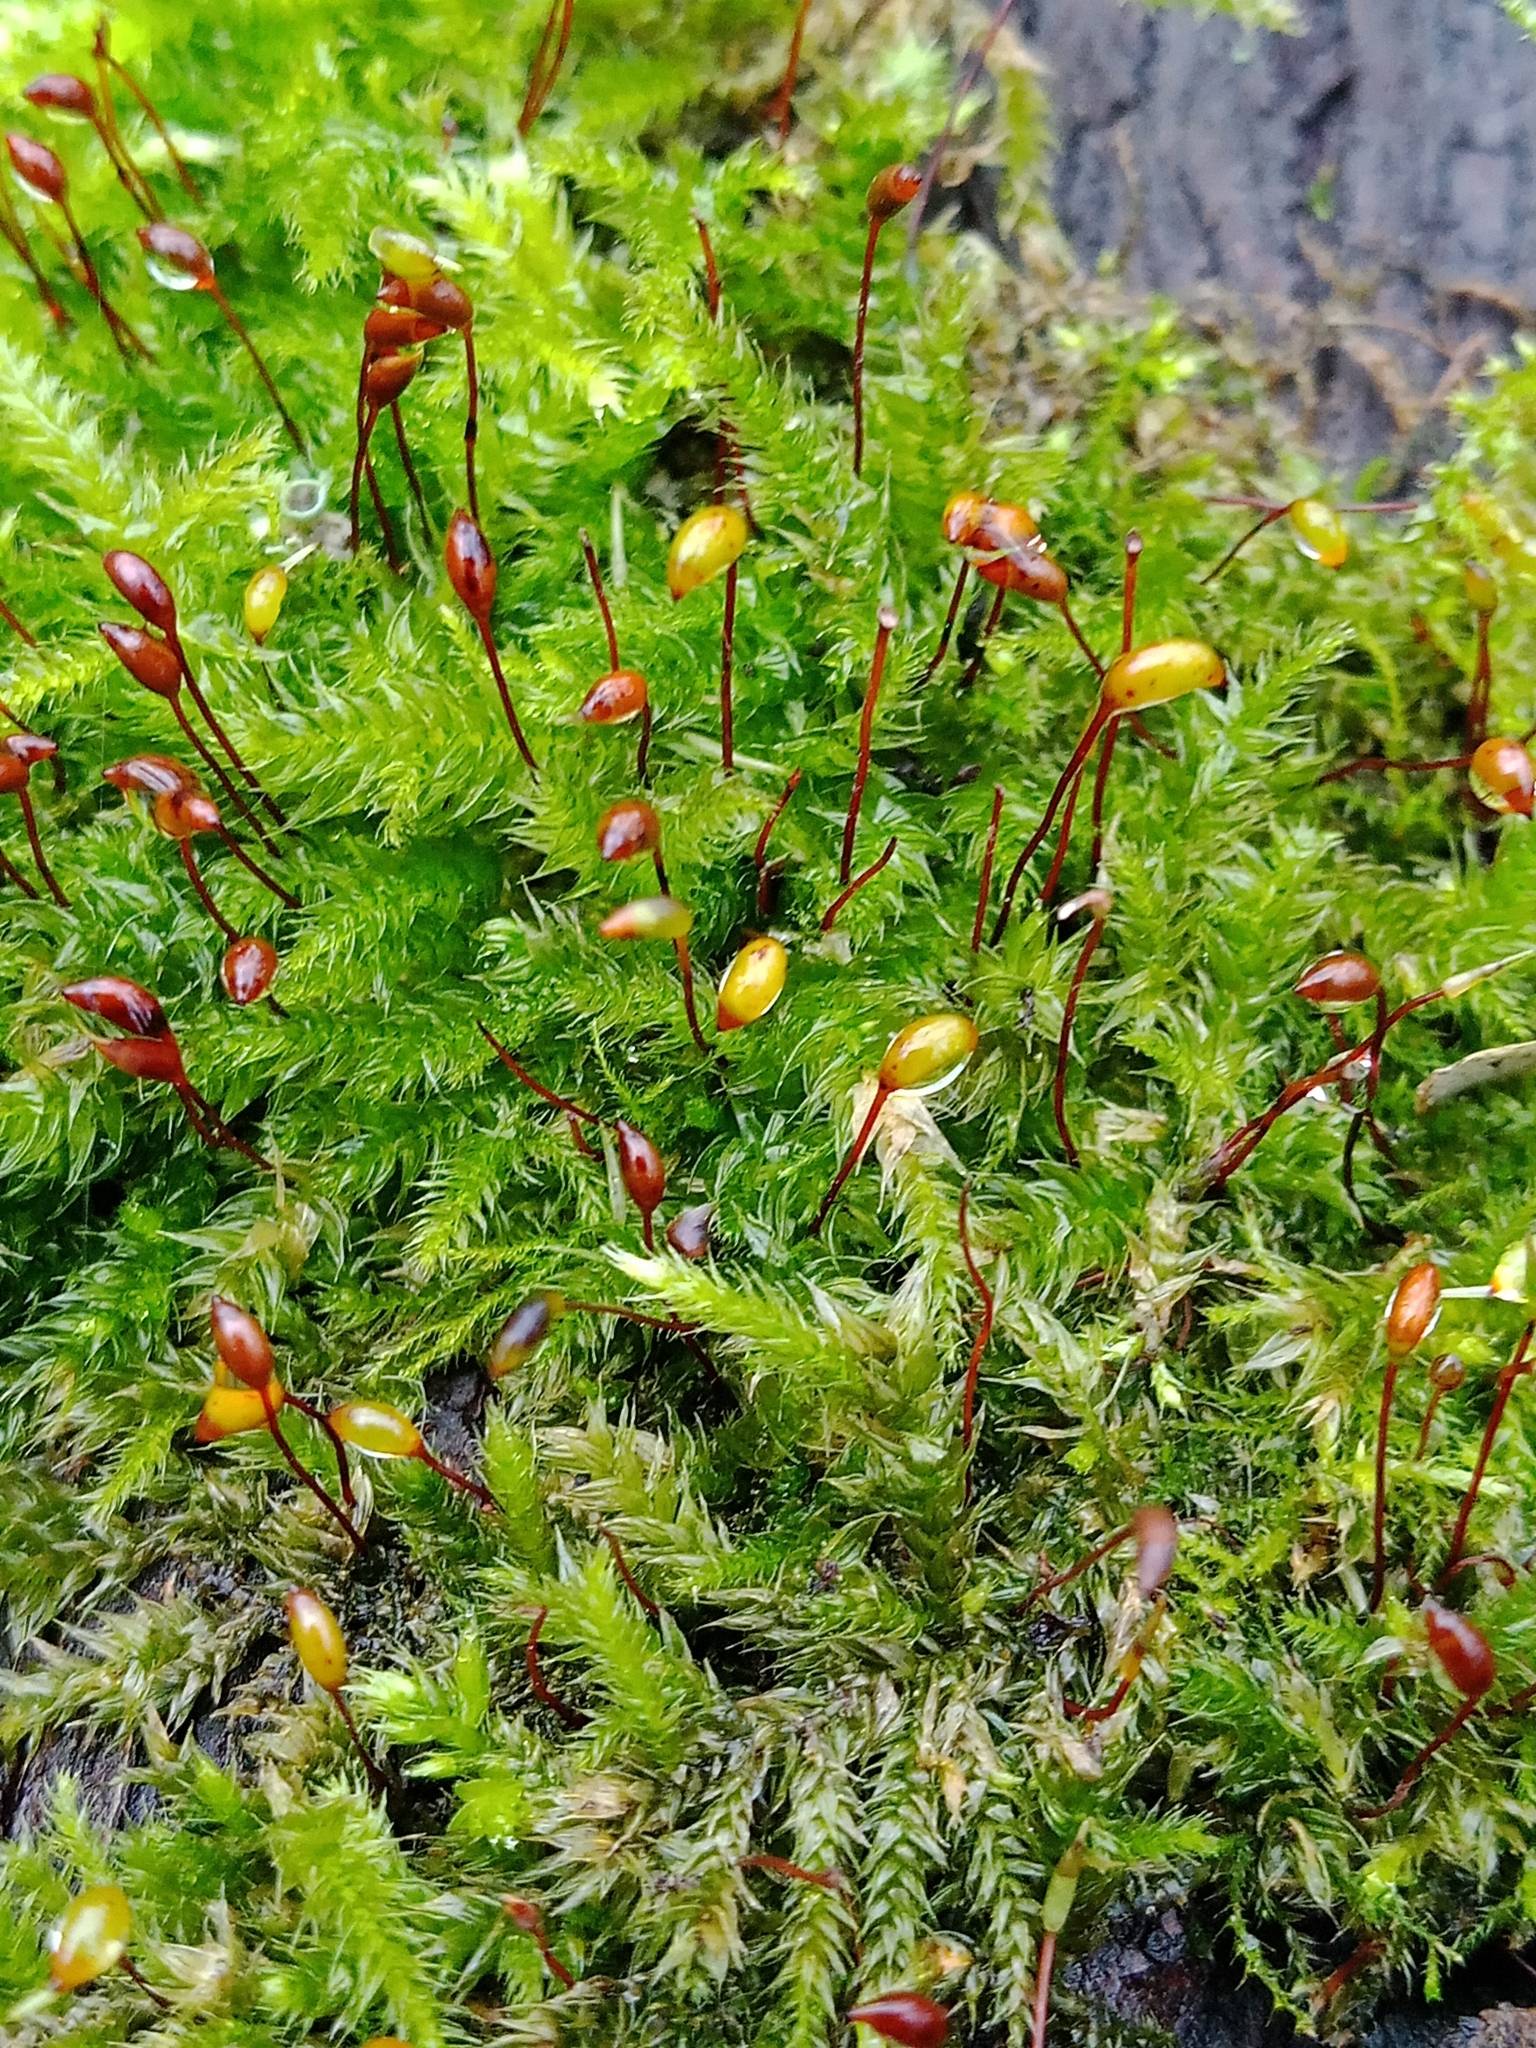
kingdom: Plantae
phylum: Bryophyta
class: Bryopsida
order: Hypnales
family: Brachytheciaceae
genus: Brachythecium
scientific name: Brachythecium rutabulum
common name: Rough-stalked feather-moss
